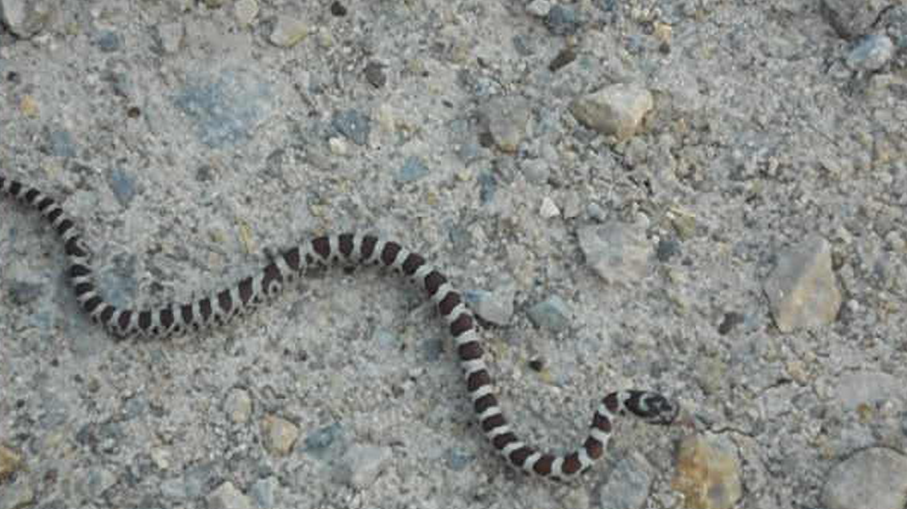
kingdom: Animalia
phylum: Chordata
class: Squamata
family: Colubridae
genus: Lampropeltis
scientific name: Lampropeltis triangulum
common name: Eastern milksnake
